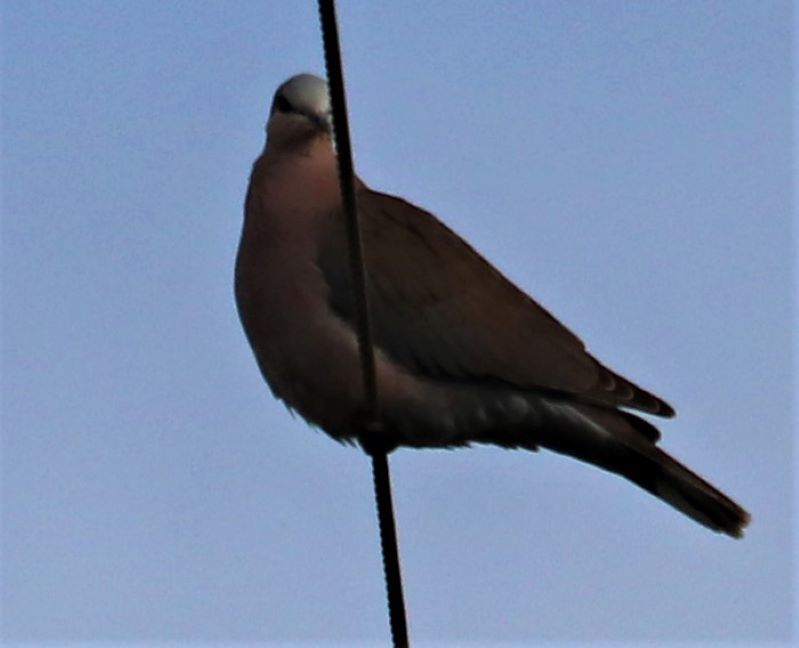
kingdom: Animalia
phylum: Chordata
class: Aves
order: Columbiformes
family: Columbidae
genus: Streptopelia
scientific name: Streptopelia semitorquata
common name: Red-eyed dove
